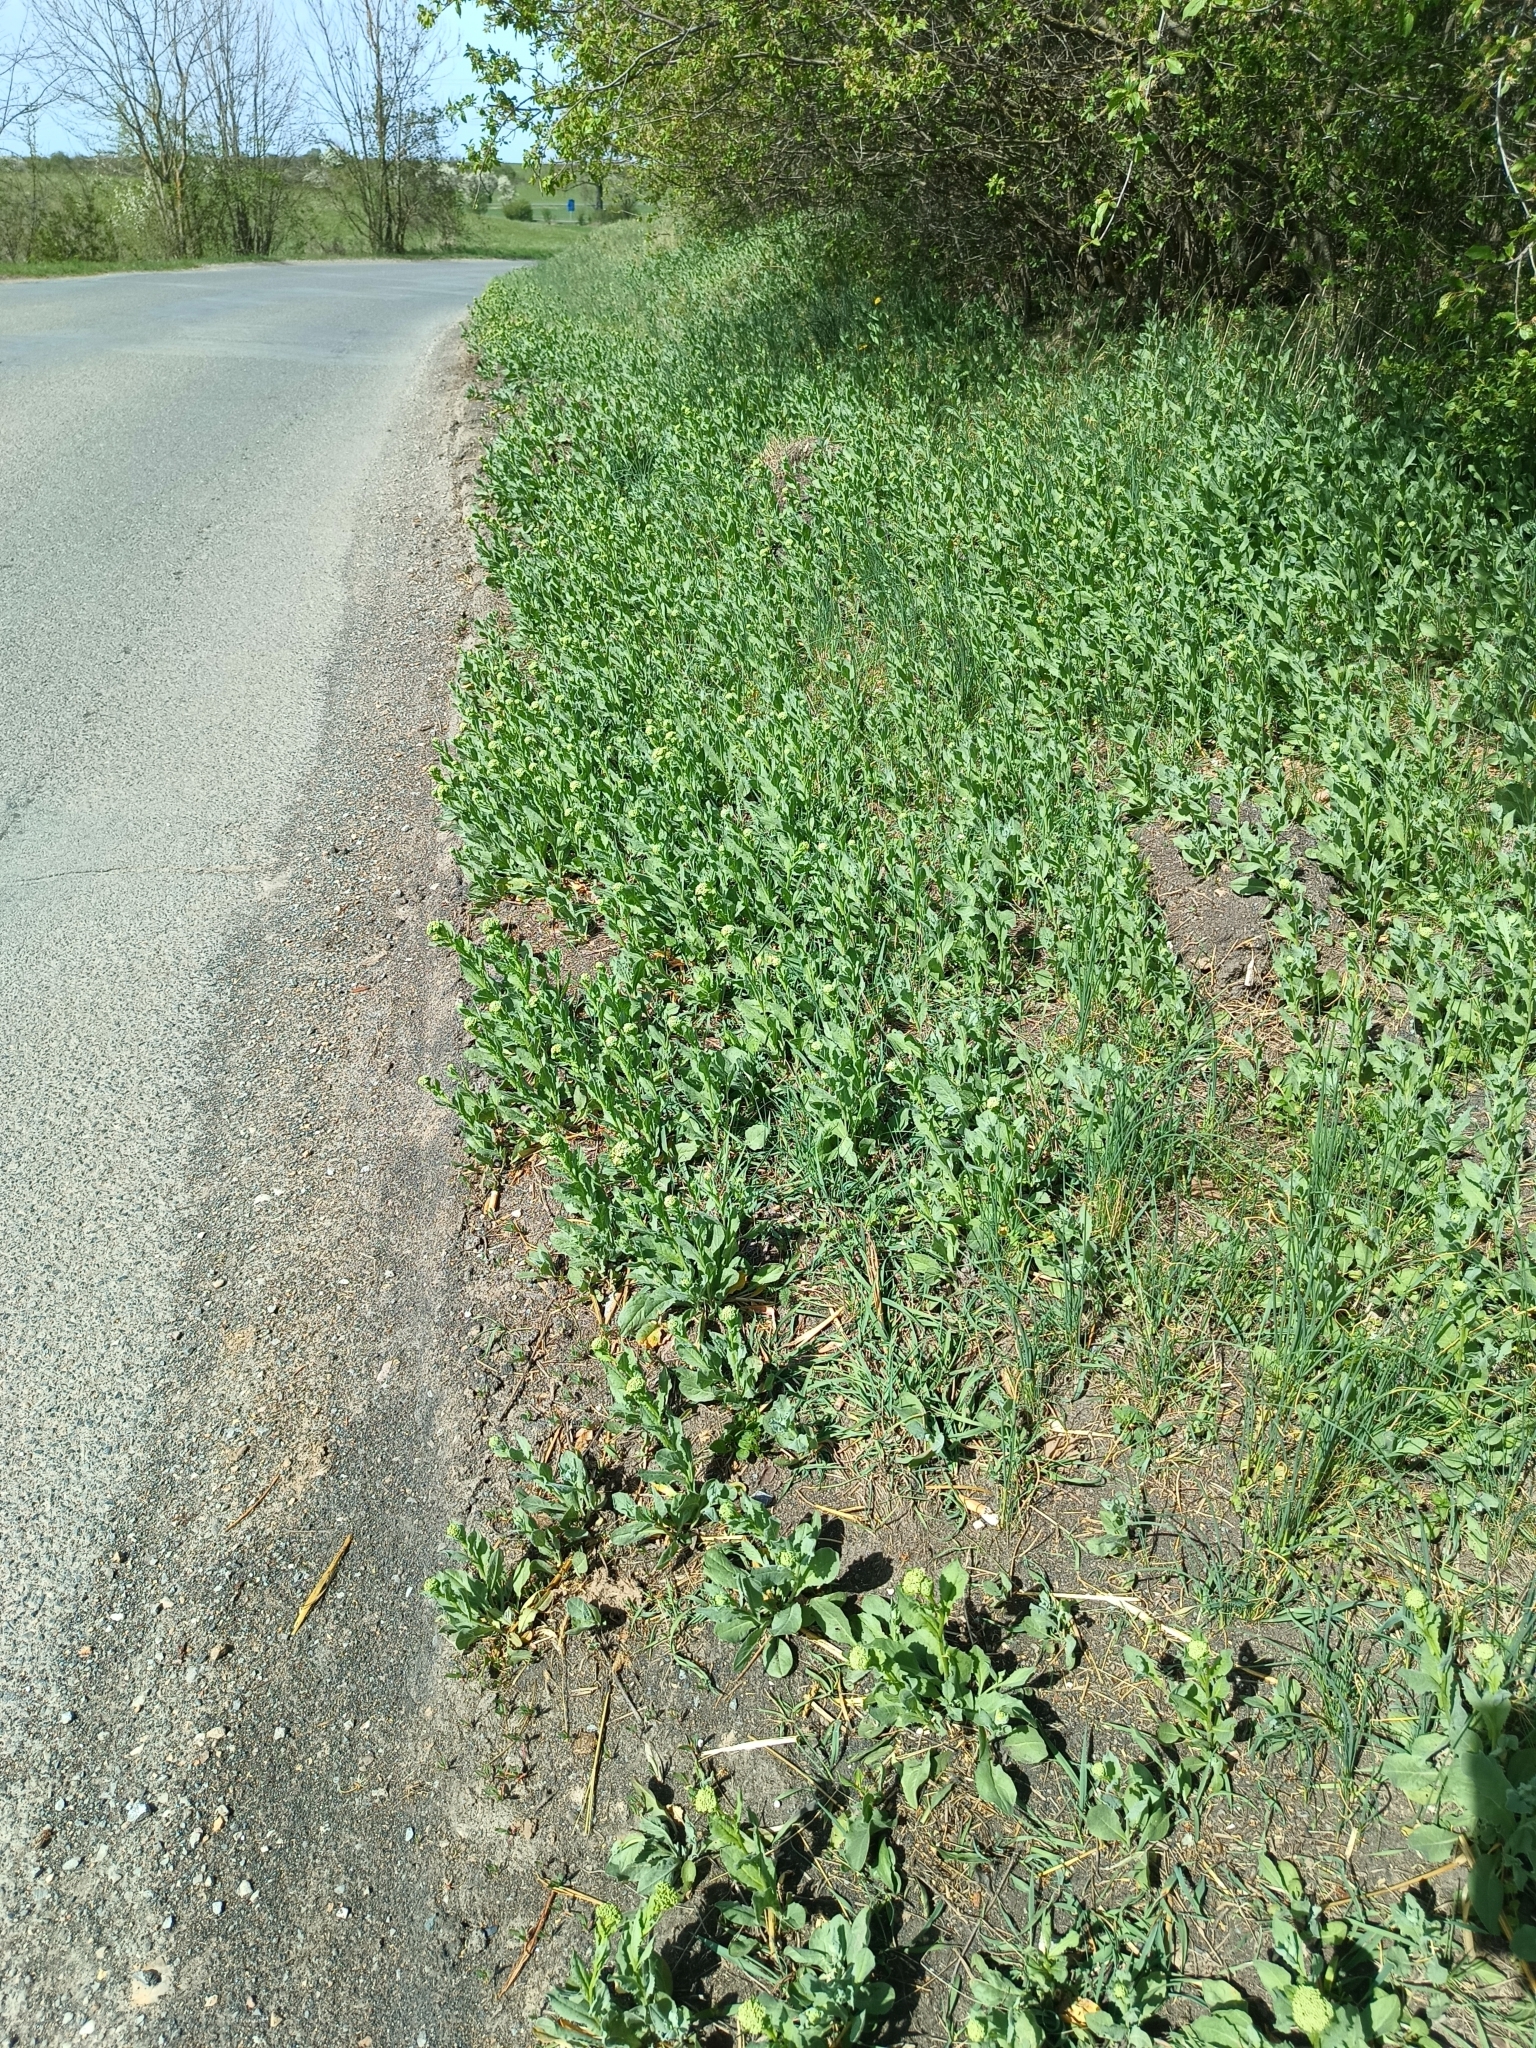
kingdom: Plantae
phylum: Tracheophyta
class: Magnoliopsida
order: Brassicales
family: Brassicaceae
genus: Lepidium
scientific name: Lepidium draba
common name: Hoary cress
